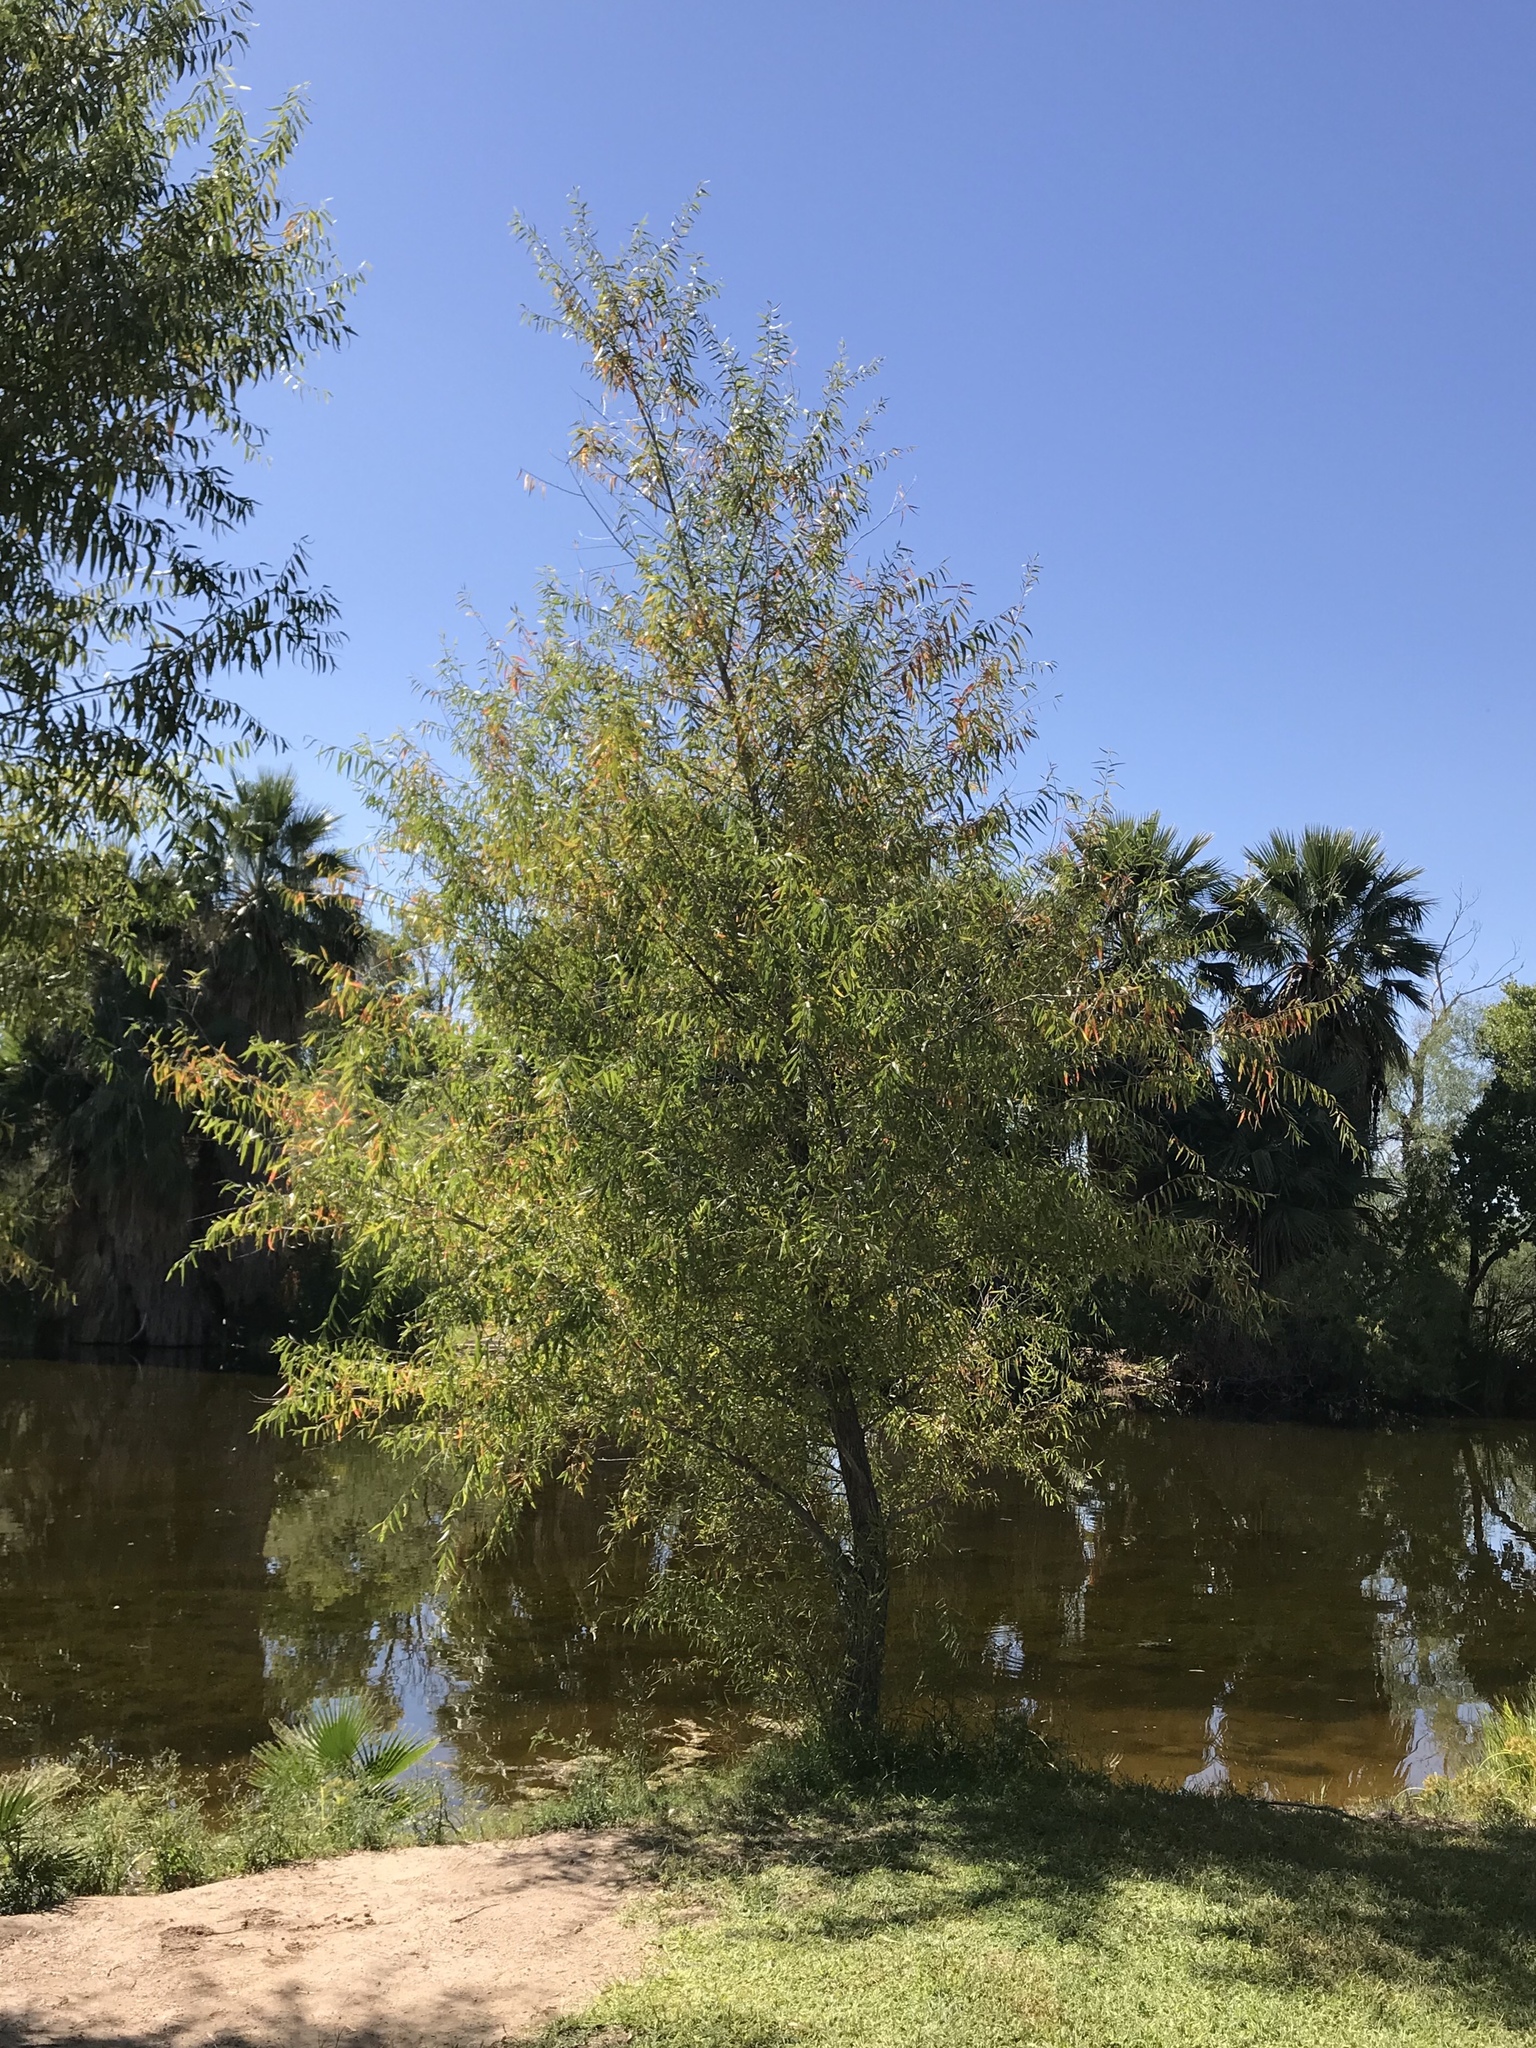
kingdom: Plantae
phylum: Tracheophyta
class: Magnoliopsida
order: Malpighiales
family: Salicaceae
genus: Salix
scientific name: Salix gooddingii
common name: Goodding's willow
